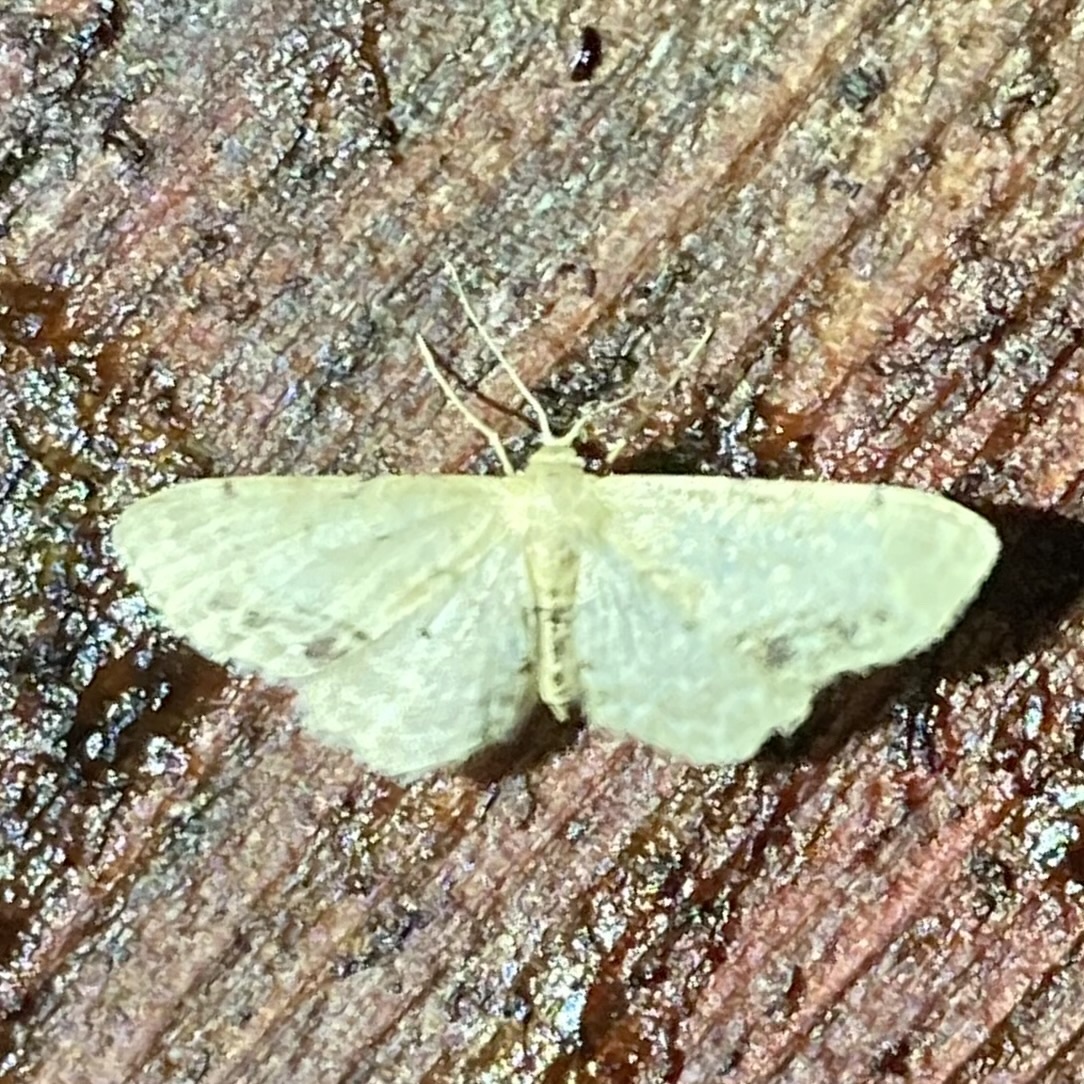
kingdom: Animalia
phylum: Arthropoda
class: Insecta
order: Lepidoptera
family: Geometridae
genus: Idaea
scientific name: Idaea dimidiata
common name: Single-dotted wave
